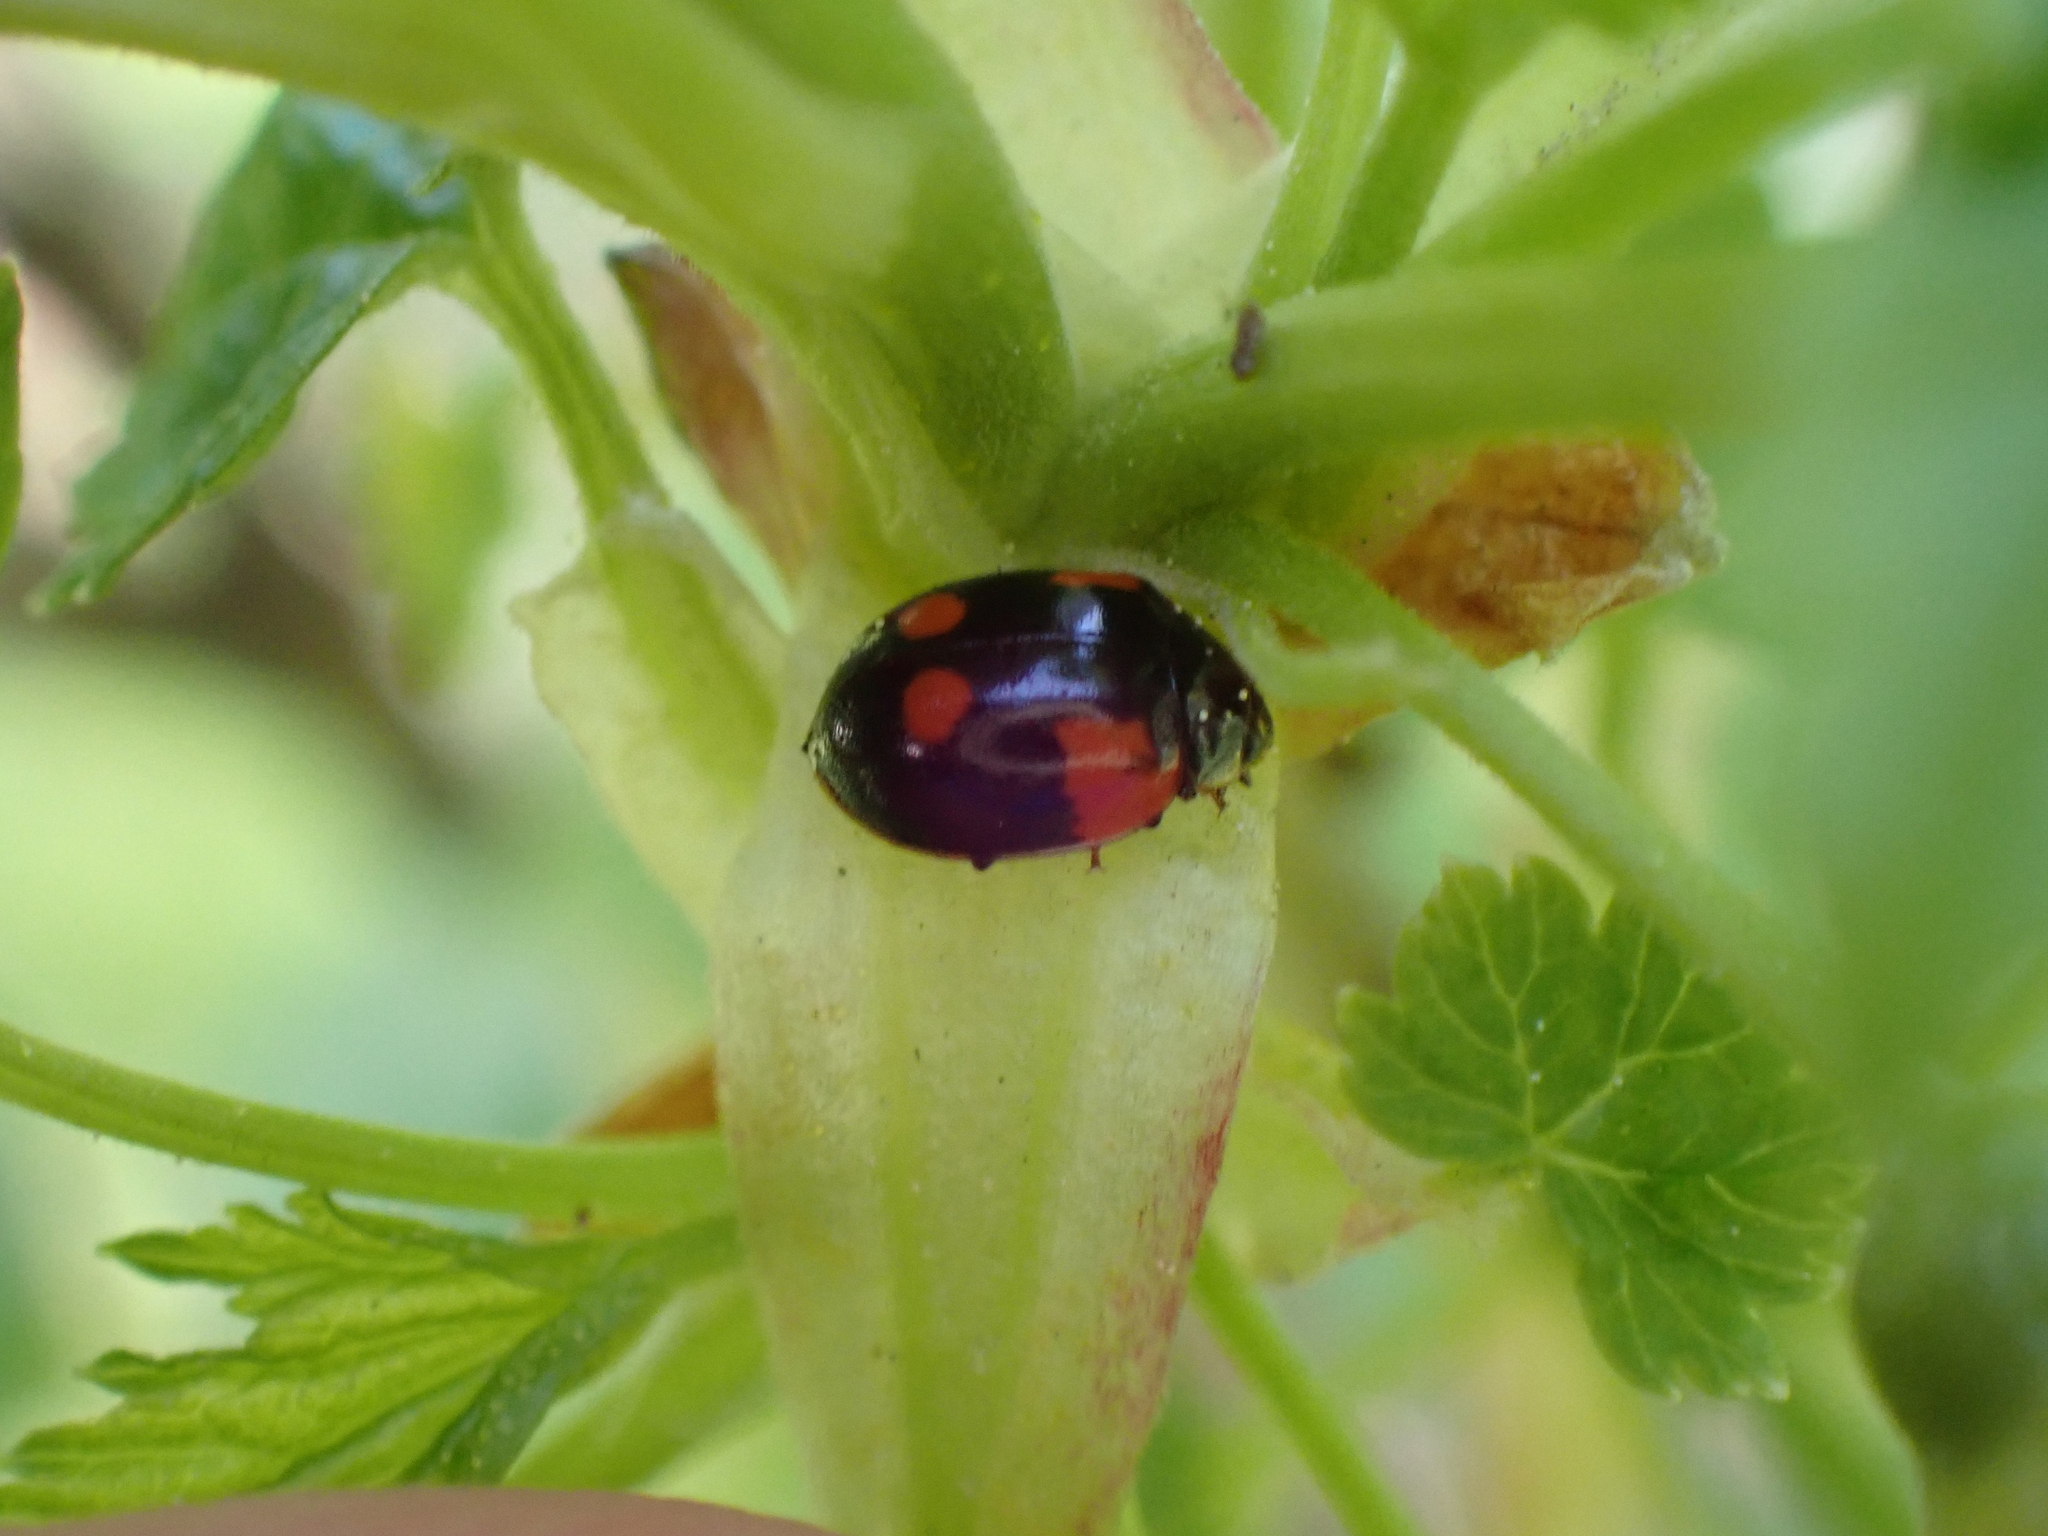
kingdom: Animalia
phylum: Arthropoda
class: Insecta
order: Coleoptera
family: Coccinellidae
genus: Adalia
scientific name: Adalia bipunctata
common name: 2-spot ladybird
